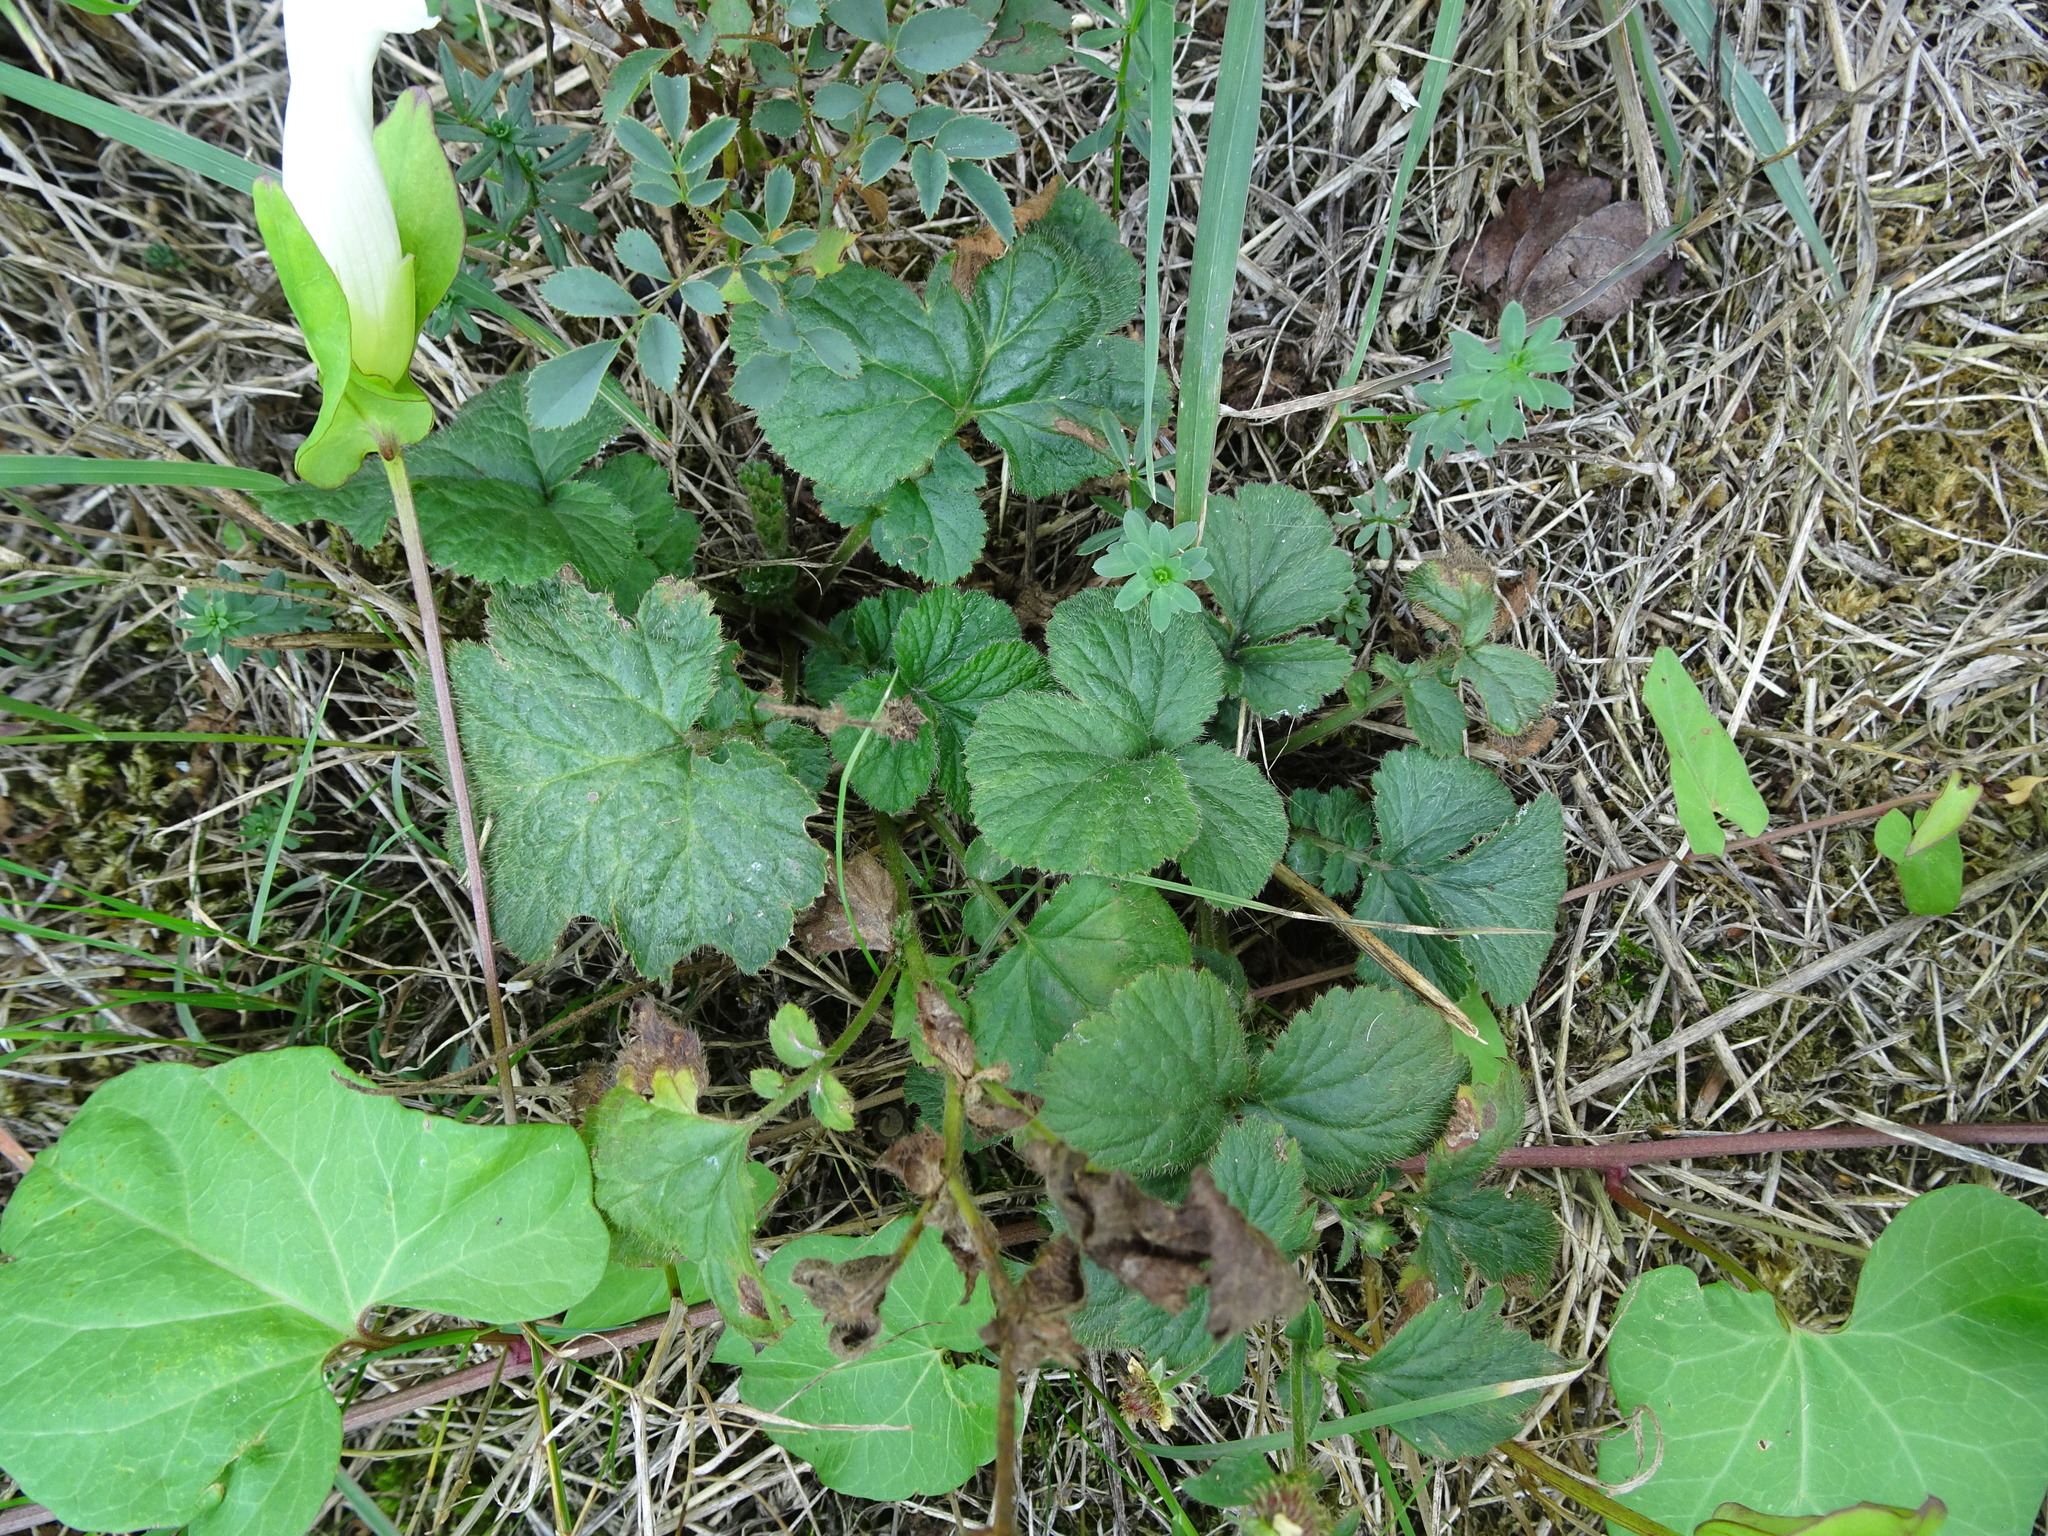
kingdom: Plantae
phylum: Tracheophyta
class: Magnoliopsida
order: Rosales
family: Rosaceae
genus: Geum
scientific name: Geum urbanum
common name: Wood avens
